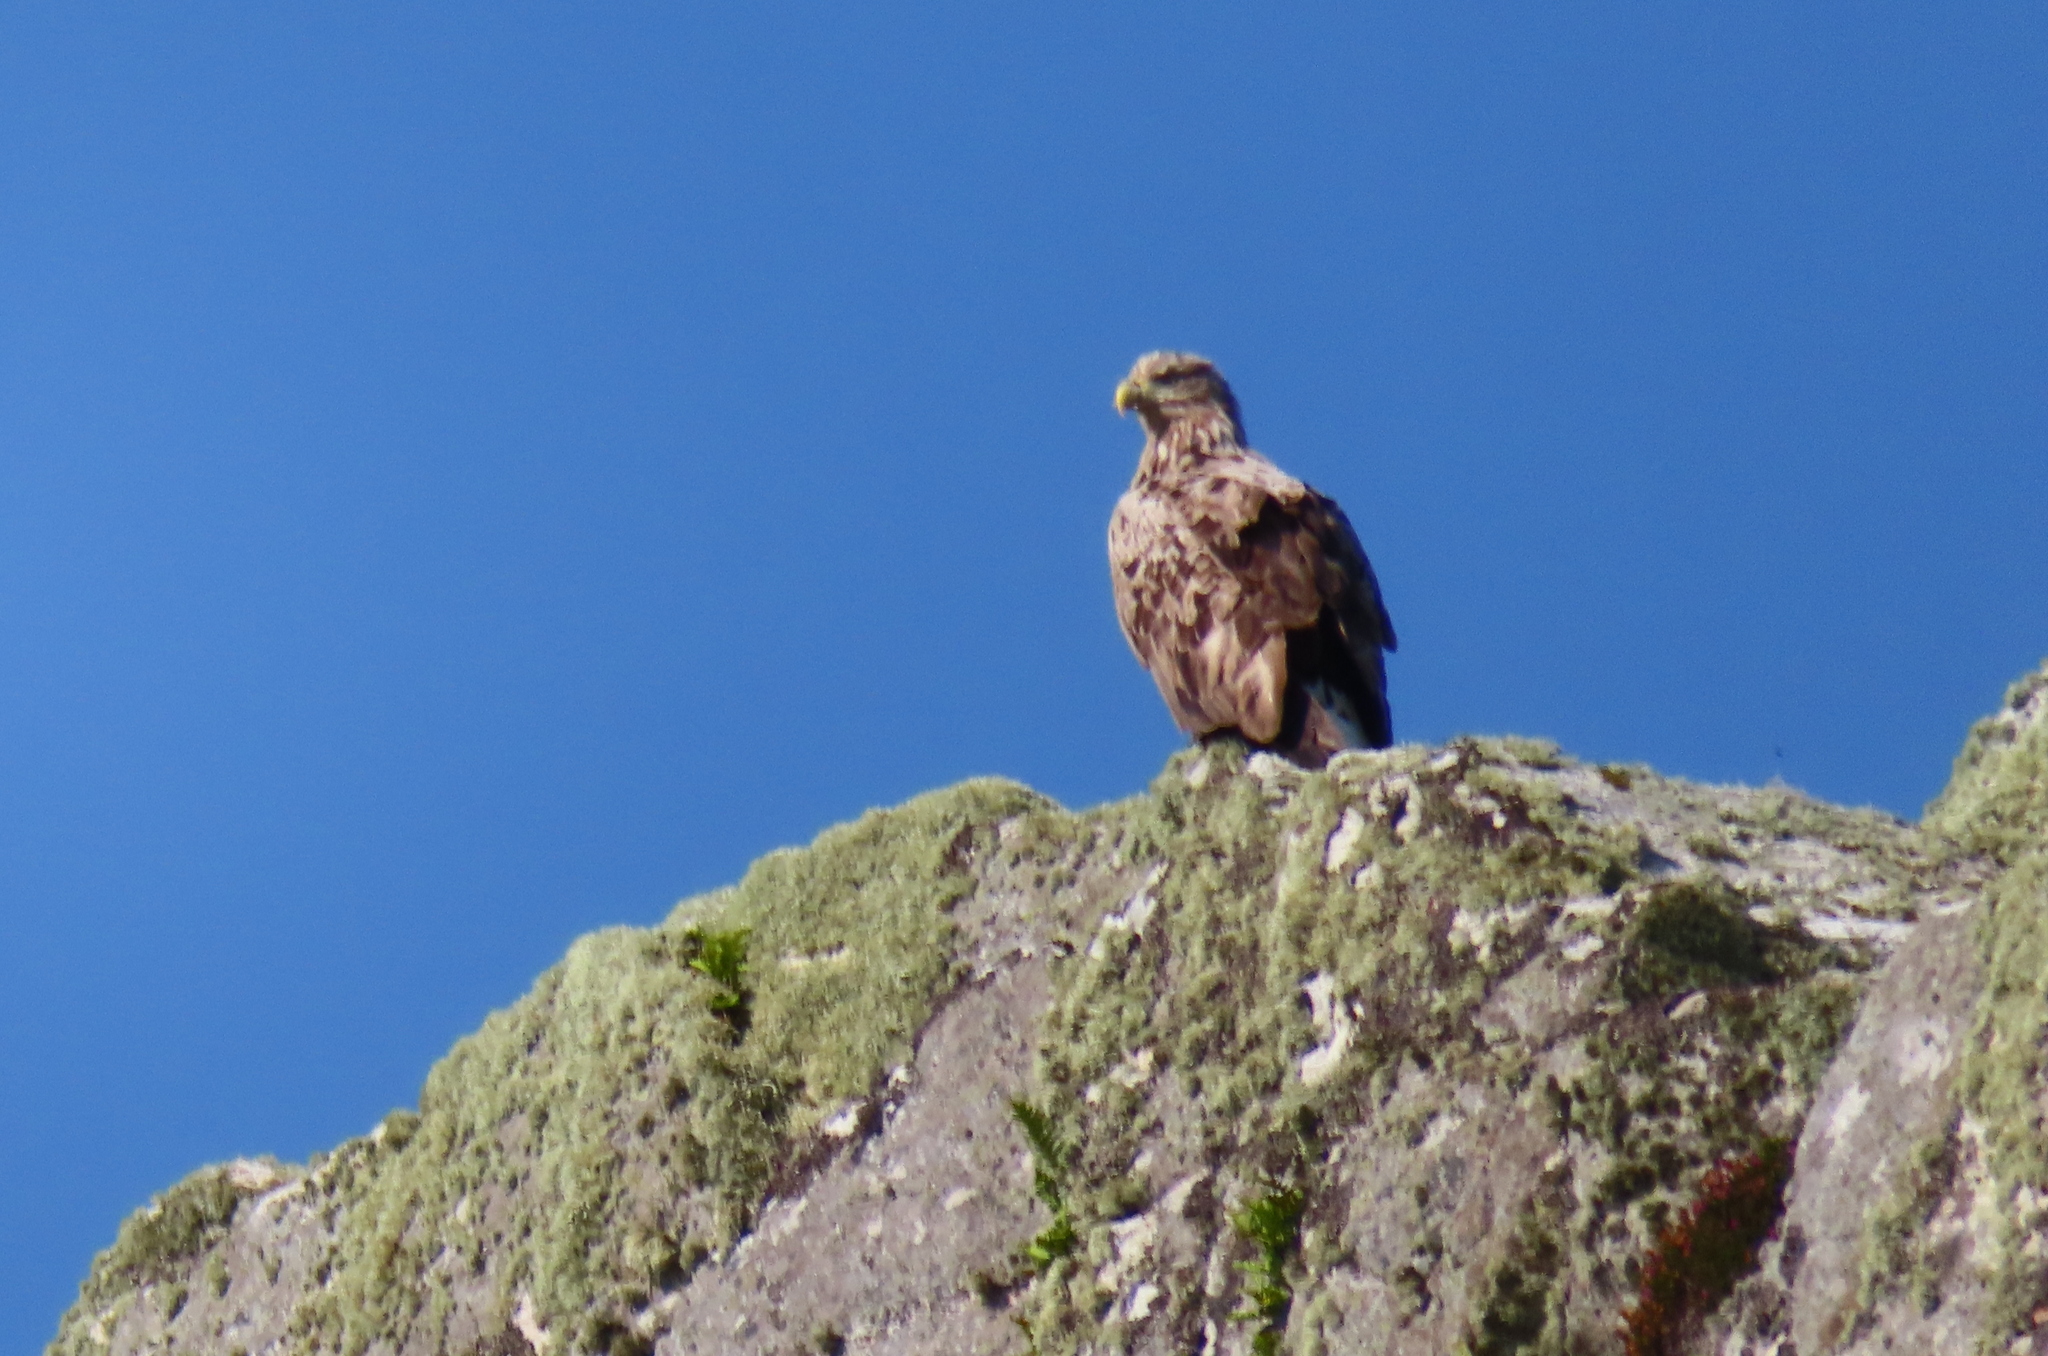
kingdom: Animalia
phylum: Chordata
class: Aves
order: Accipitriformes
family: Accipitridae
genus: Haliaeetus
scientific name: Haliaeetus albicilla
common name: White-tailed eagle
